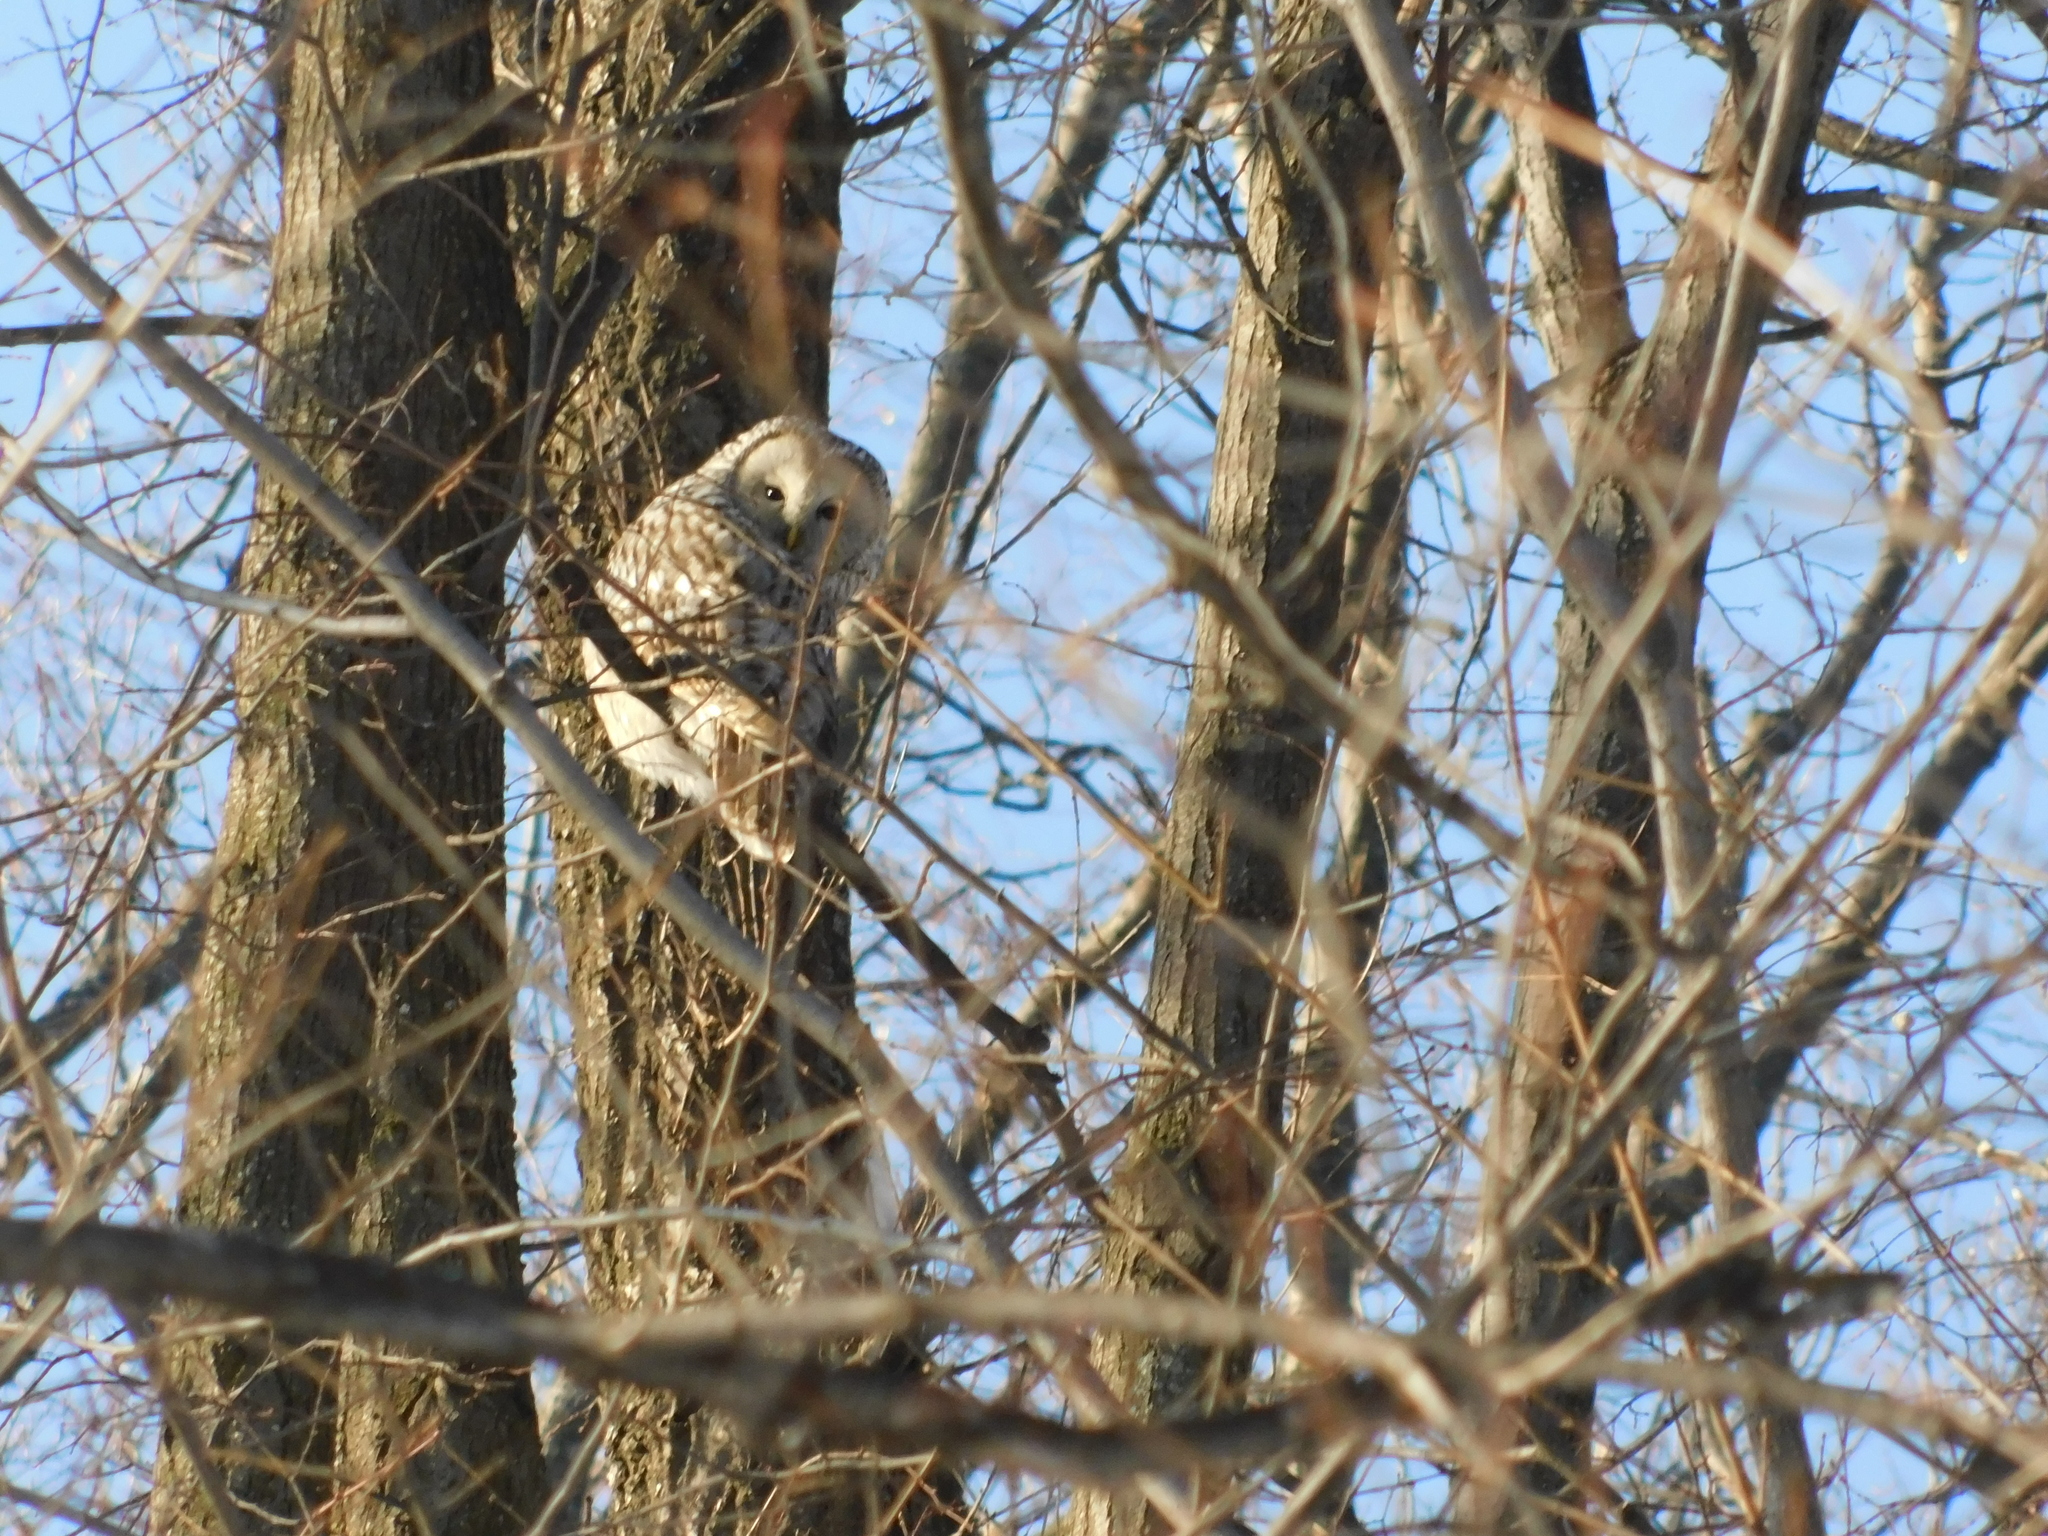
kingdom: Animalia
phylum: Chordata
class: Aves
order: Strigiformes
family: Strigidae
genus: Strix
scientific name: Strix uralensis
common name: Ural owl
